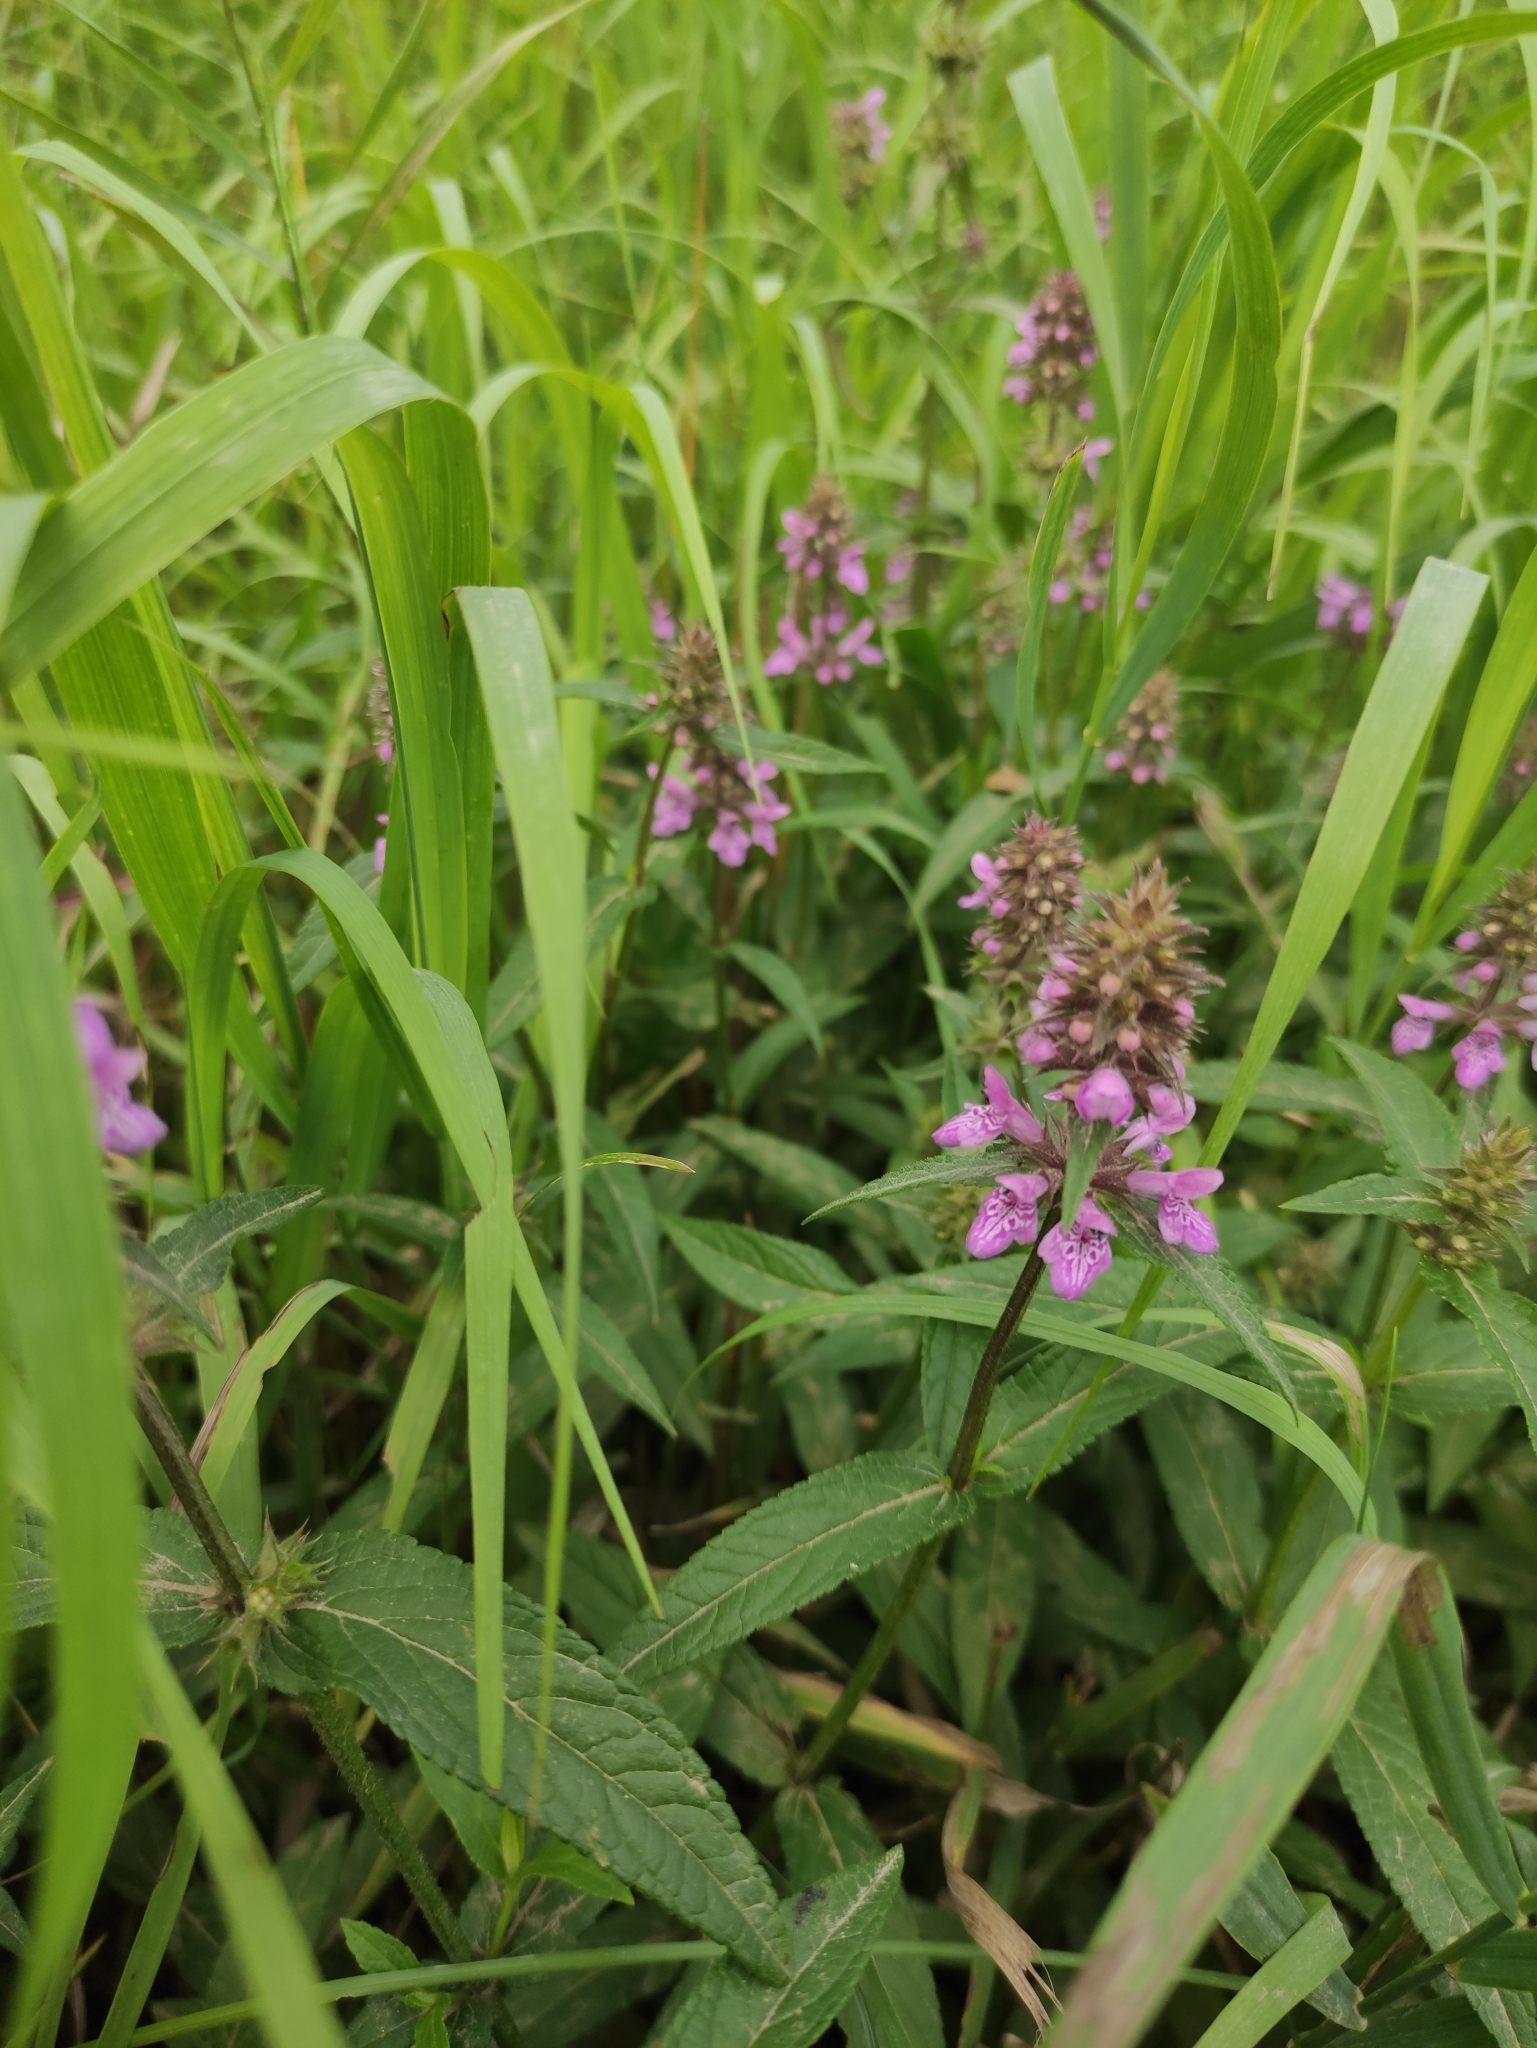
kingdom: Plantae
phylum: Tracheophyta
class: Magnoliopsida
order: Lamiales
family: Lamiaceae
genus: Stachys
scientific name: Stachys palustris
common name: Marsh woundwort
